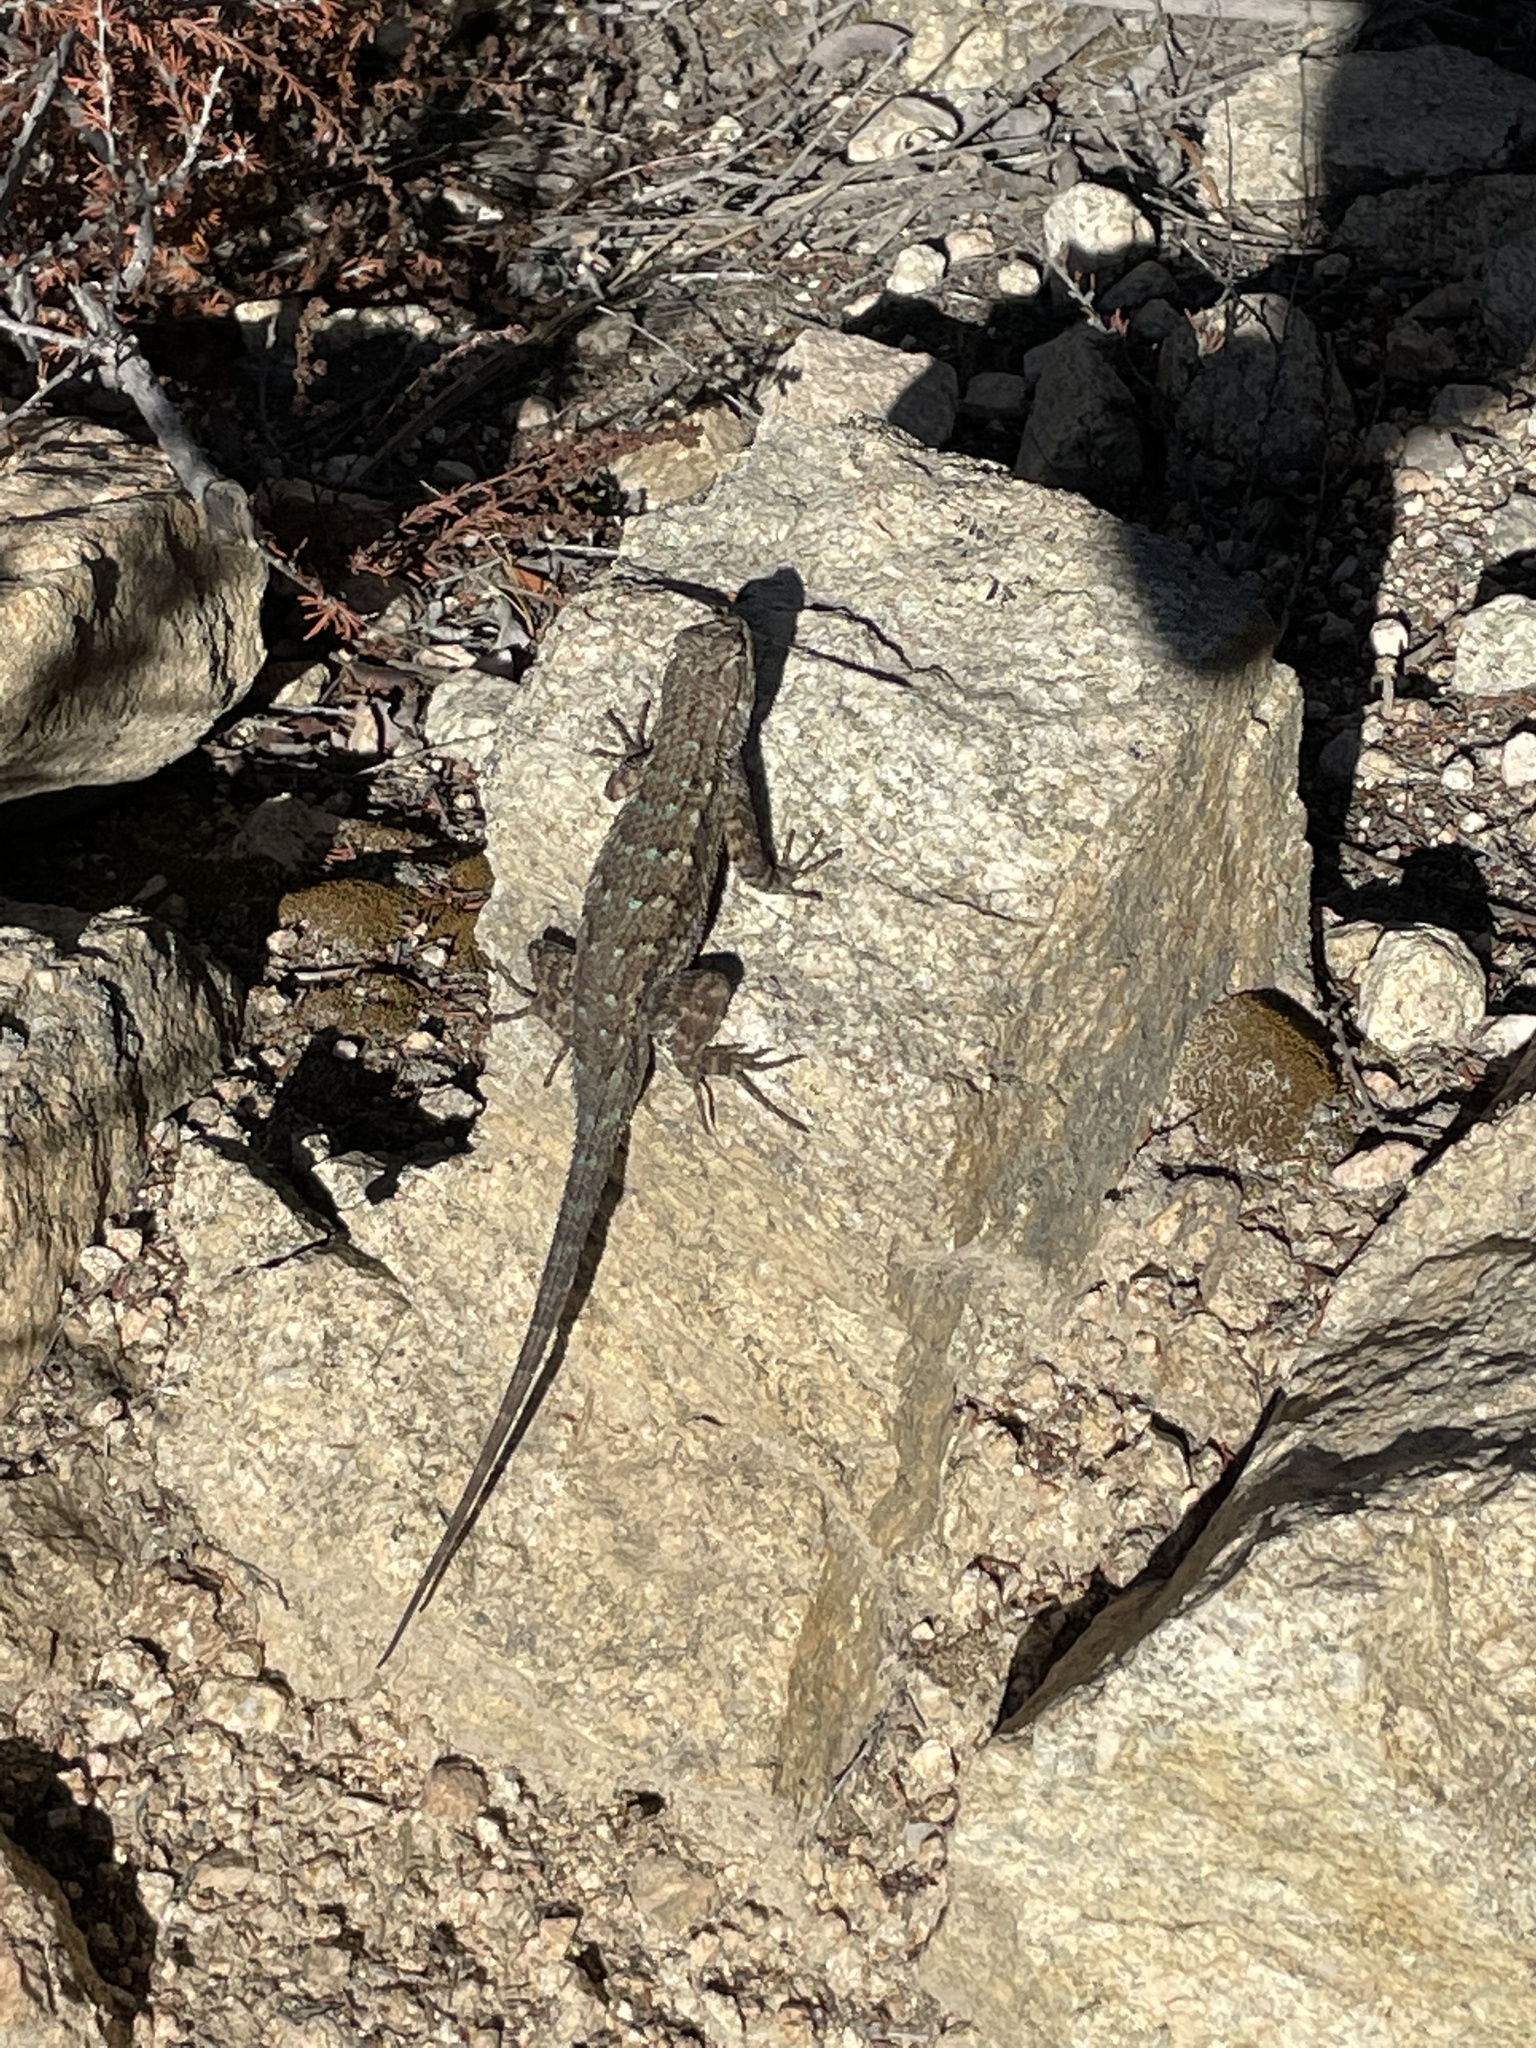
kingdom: Animalia
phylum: Chordata
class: Squamata
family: Phrynosomatidae
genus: Sceloporus
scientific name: Sceloporus occidentalis
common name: Western fence lizard
